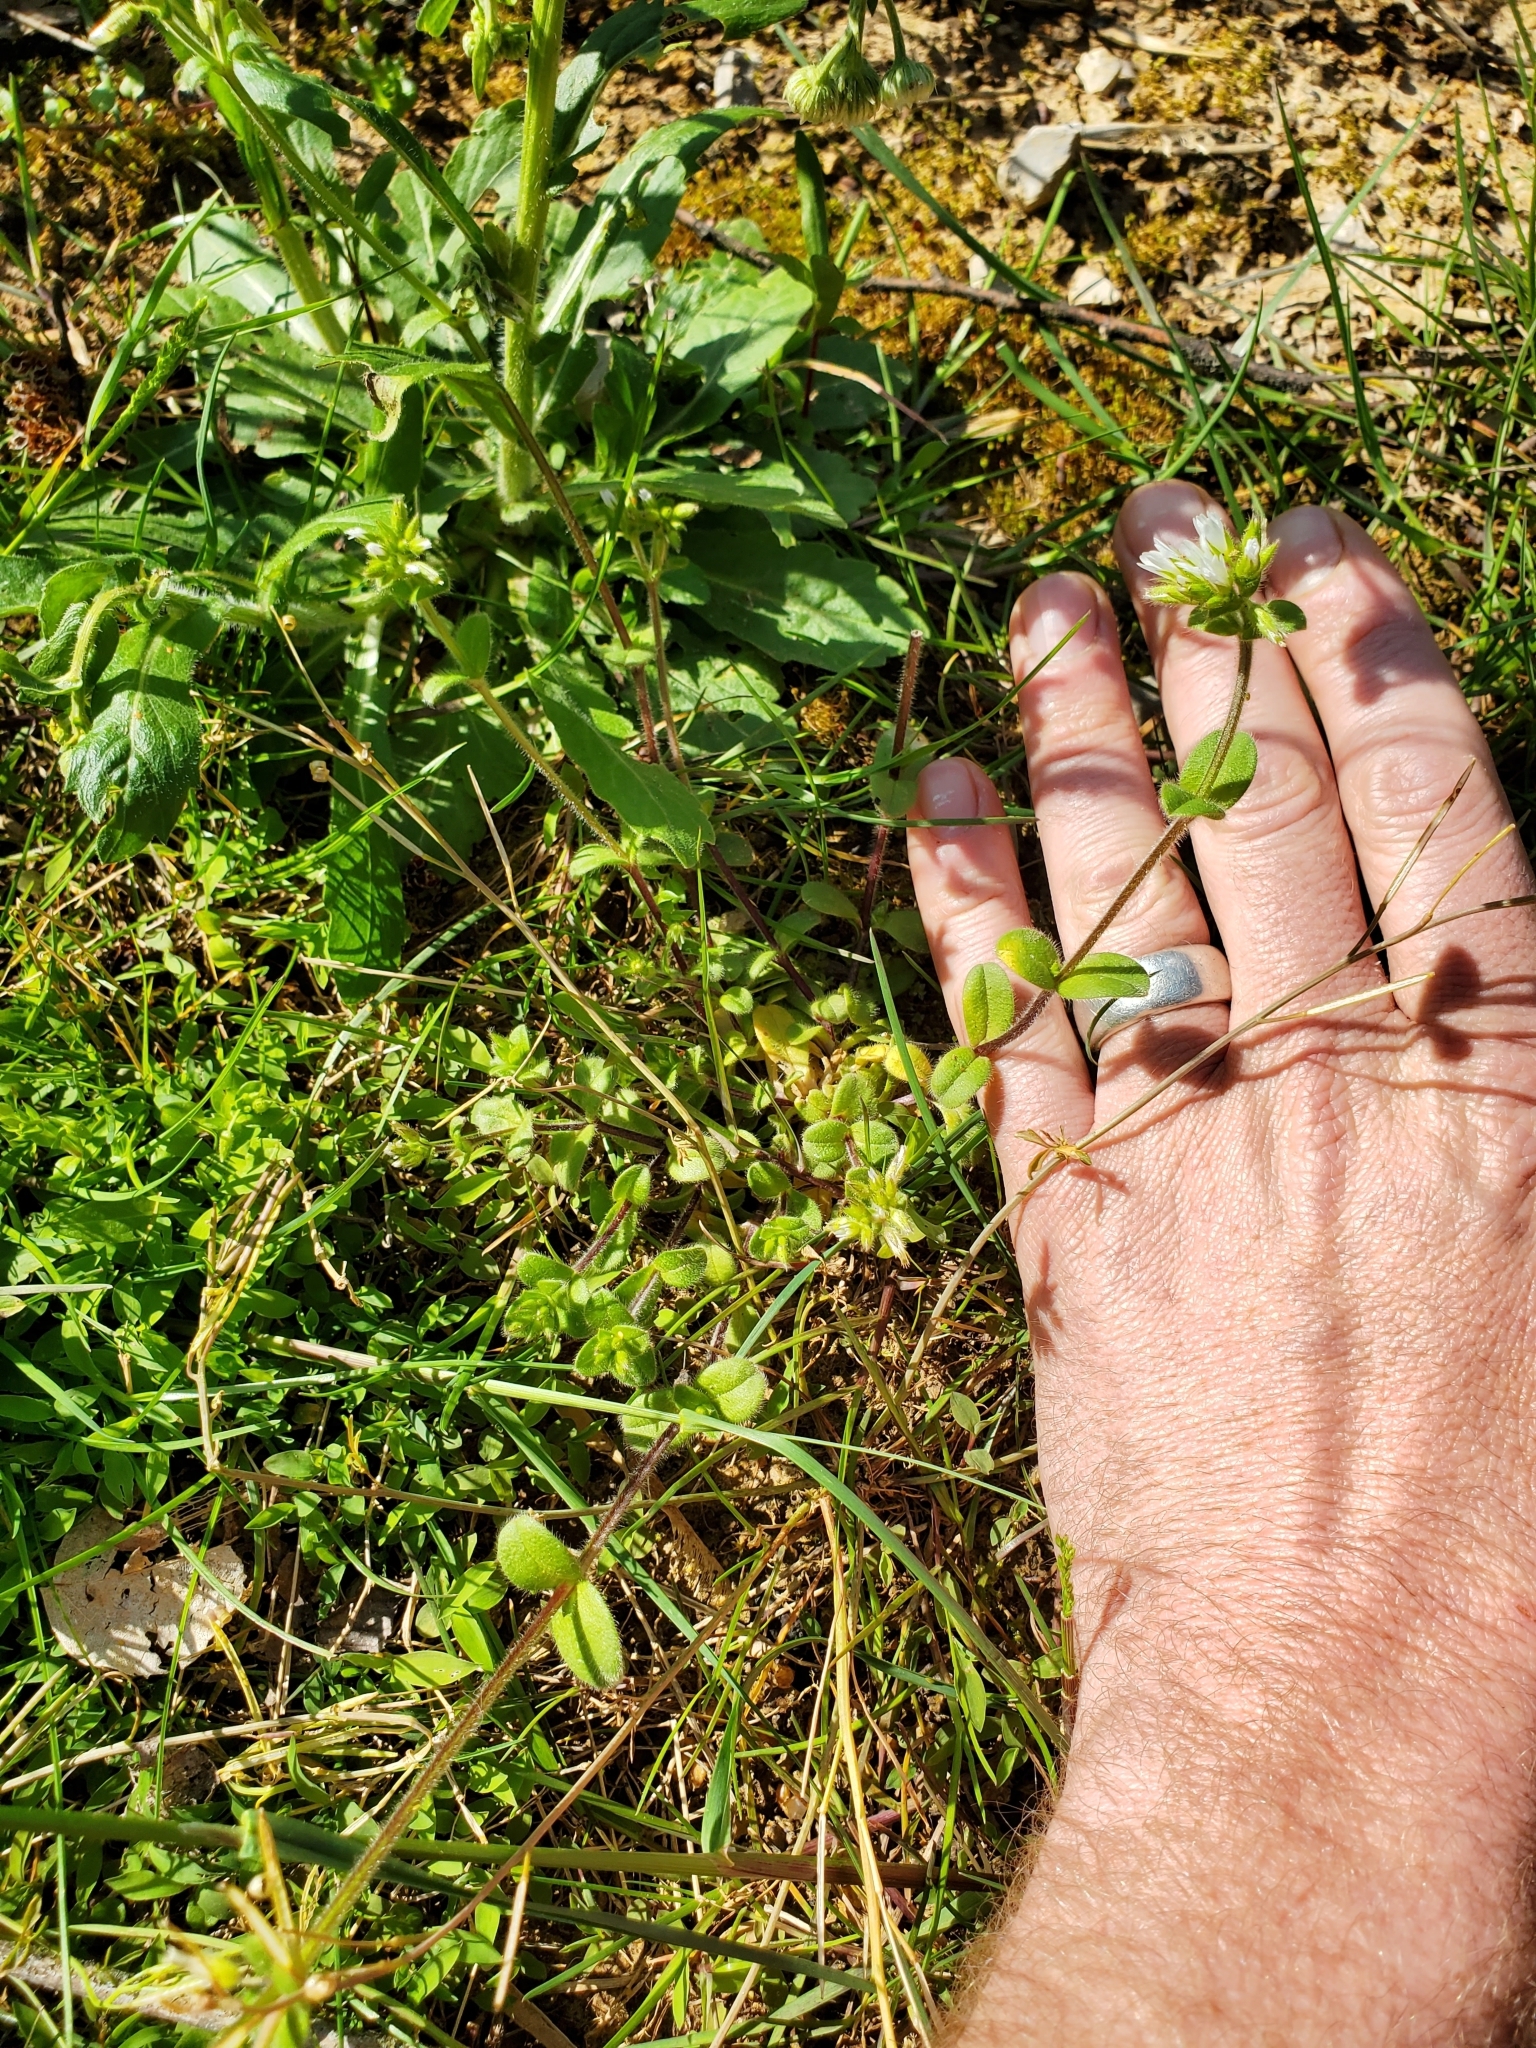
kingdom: Plantae
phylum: Tracheophyta
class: Magnoliopsida
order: Caryophyllales
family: Caryophyllaceae
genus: Cerastium
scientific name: Cerastium glomeratum
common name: Sticky chickweed
